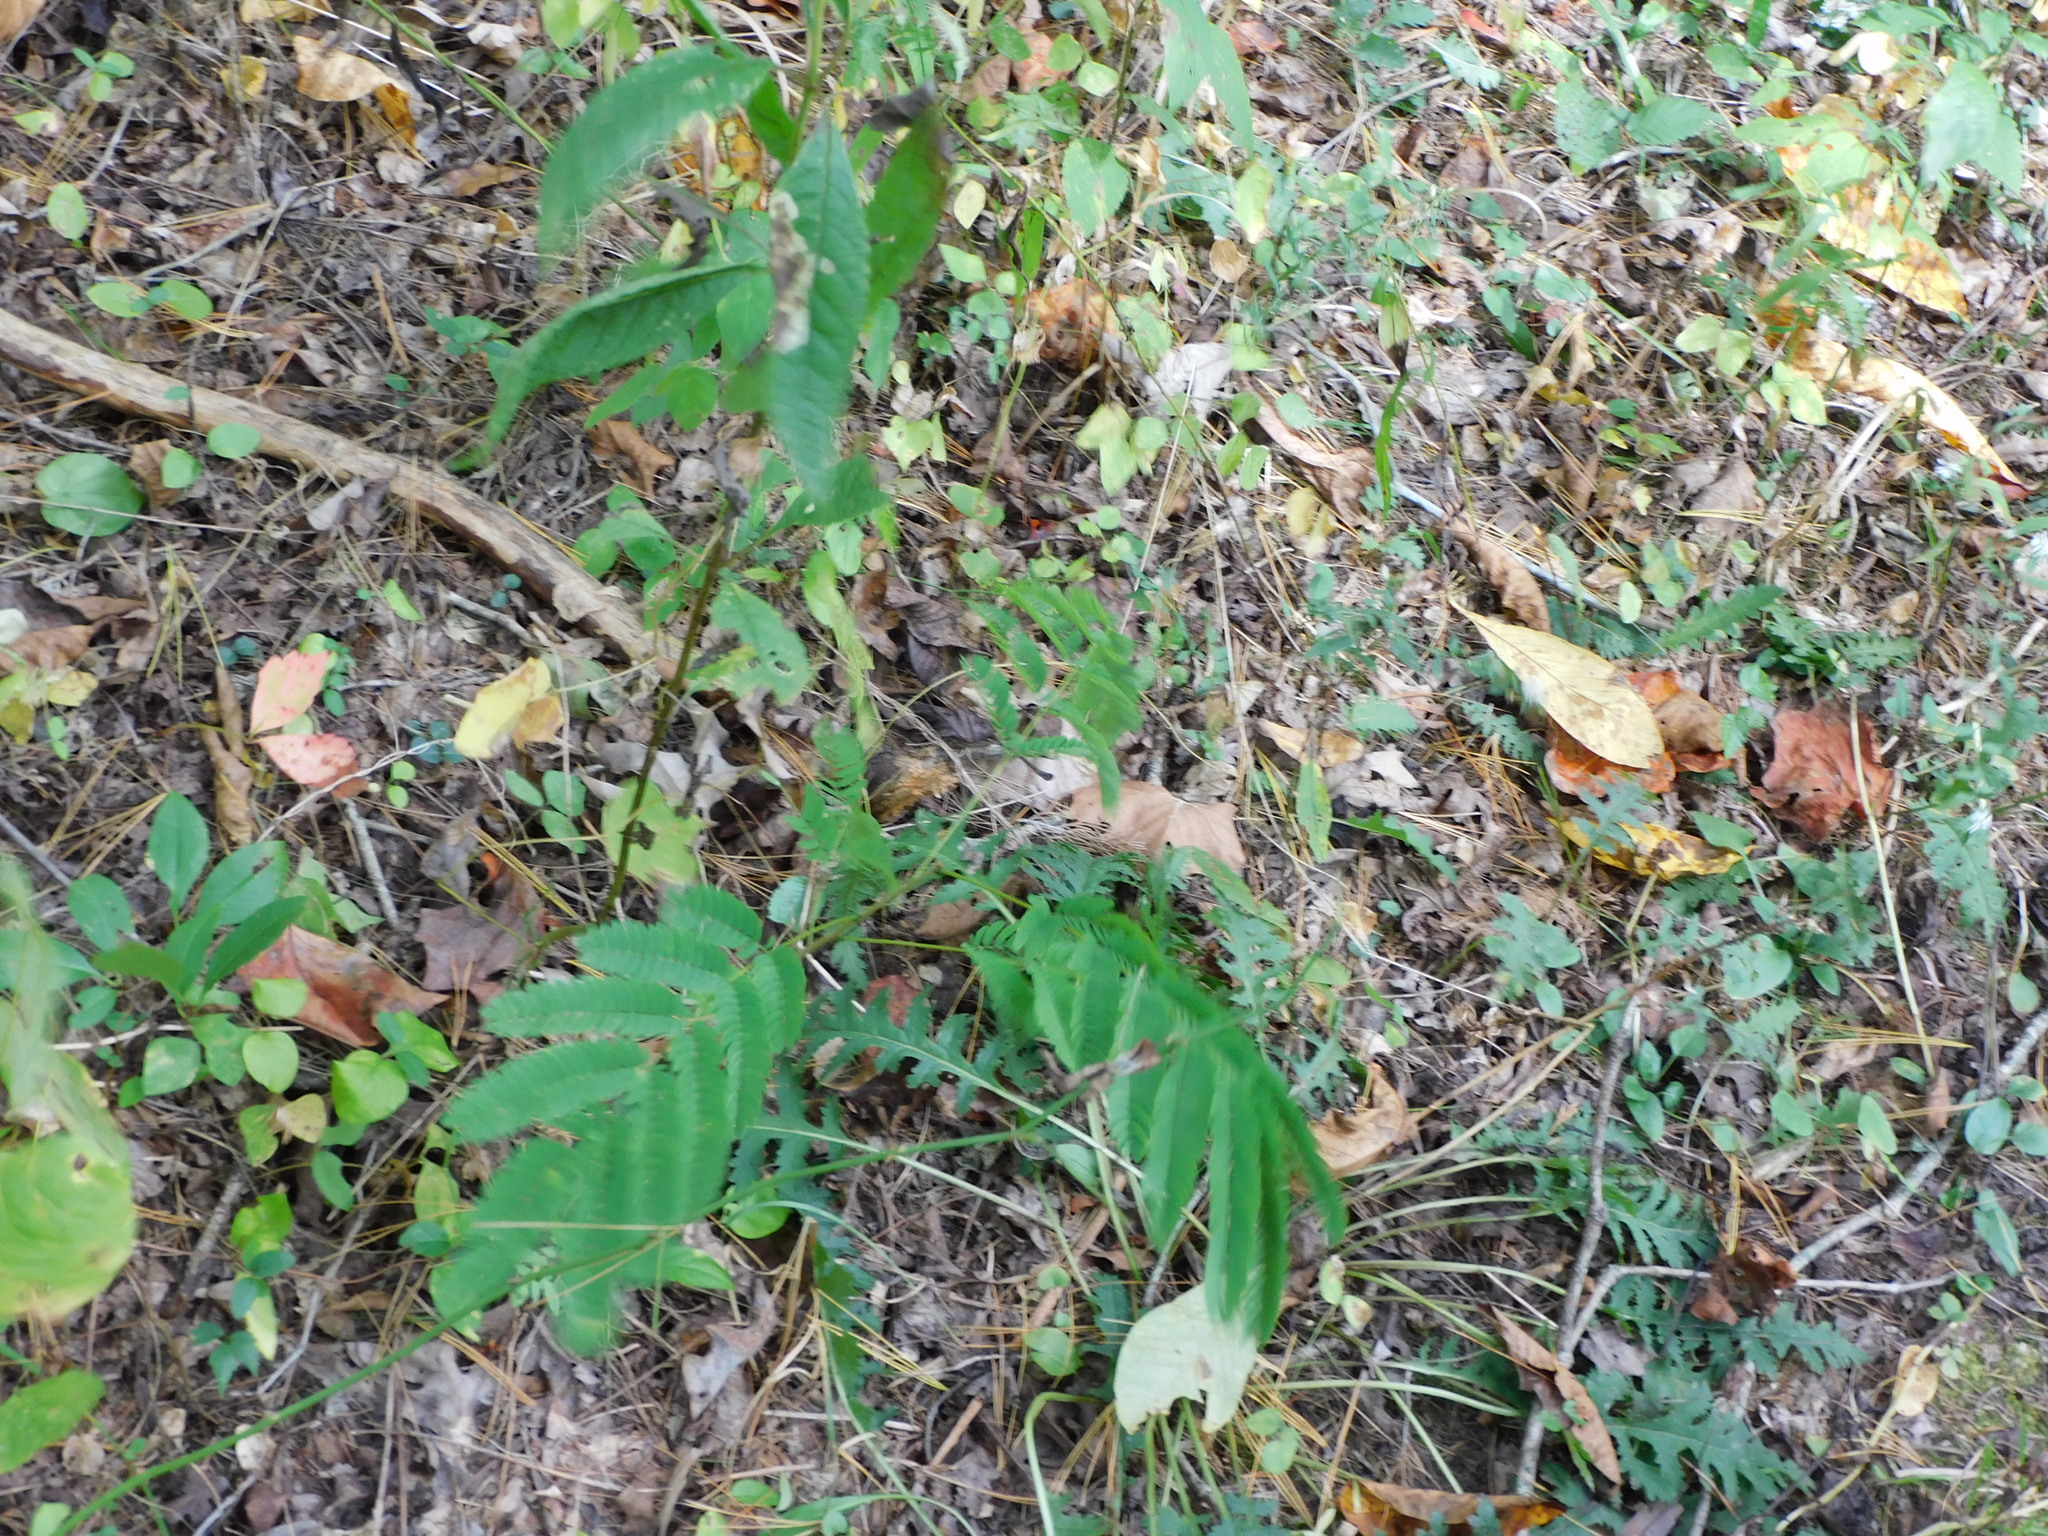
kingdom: Plantae
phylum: Tracheophyta
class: Magnoliopsida
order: Fabales
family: Fabaceae
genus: Albizia
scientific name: Albizia julibrissin
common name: Silktree
